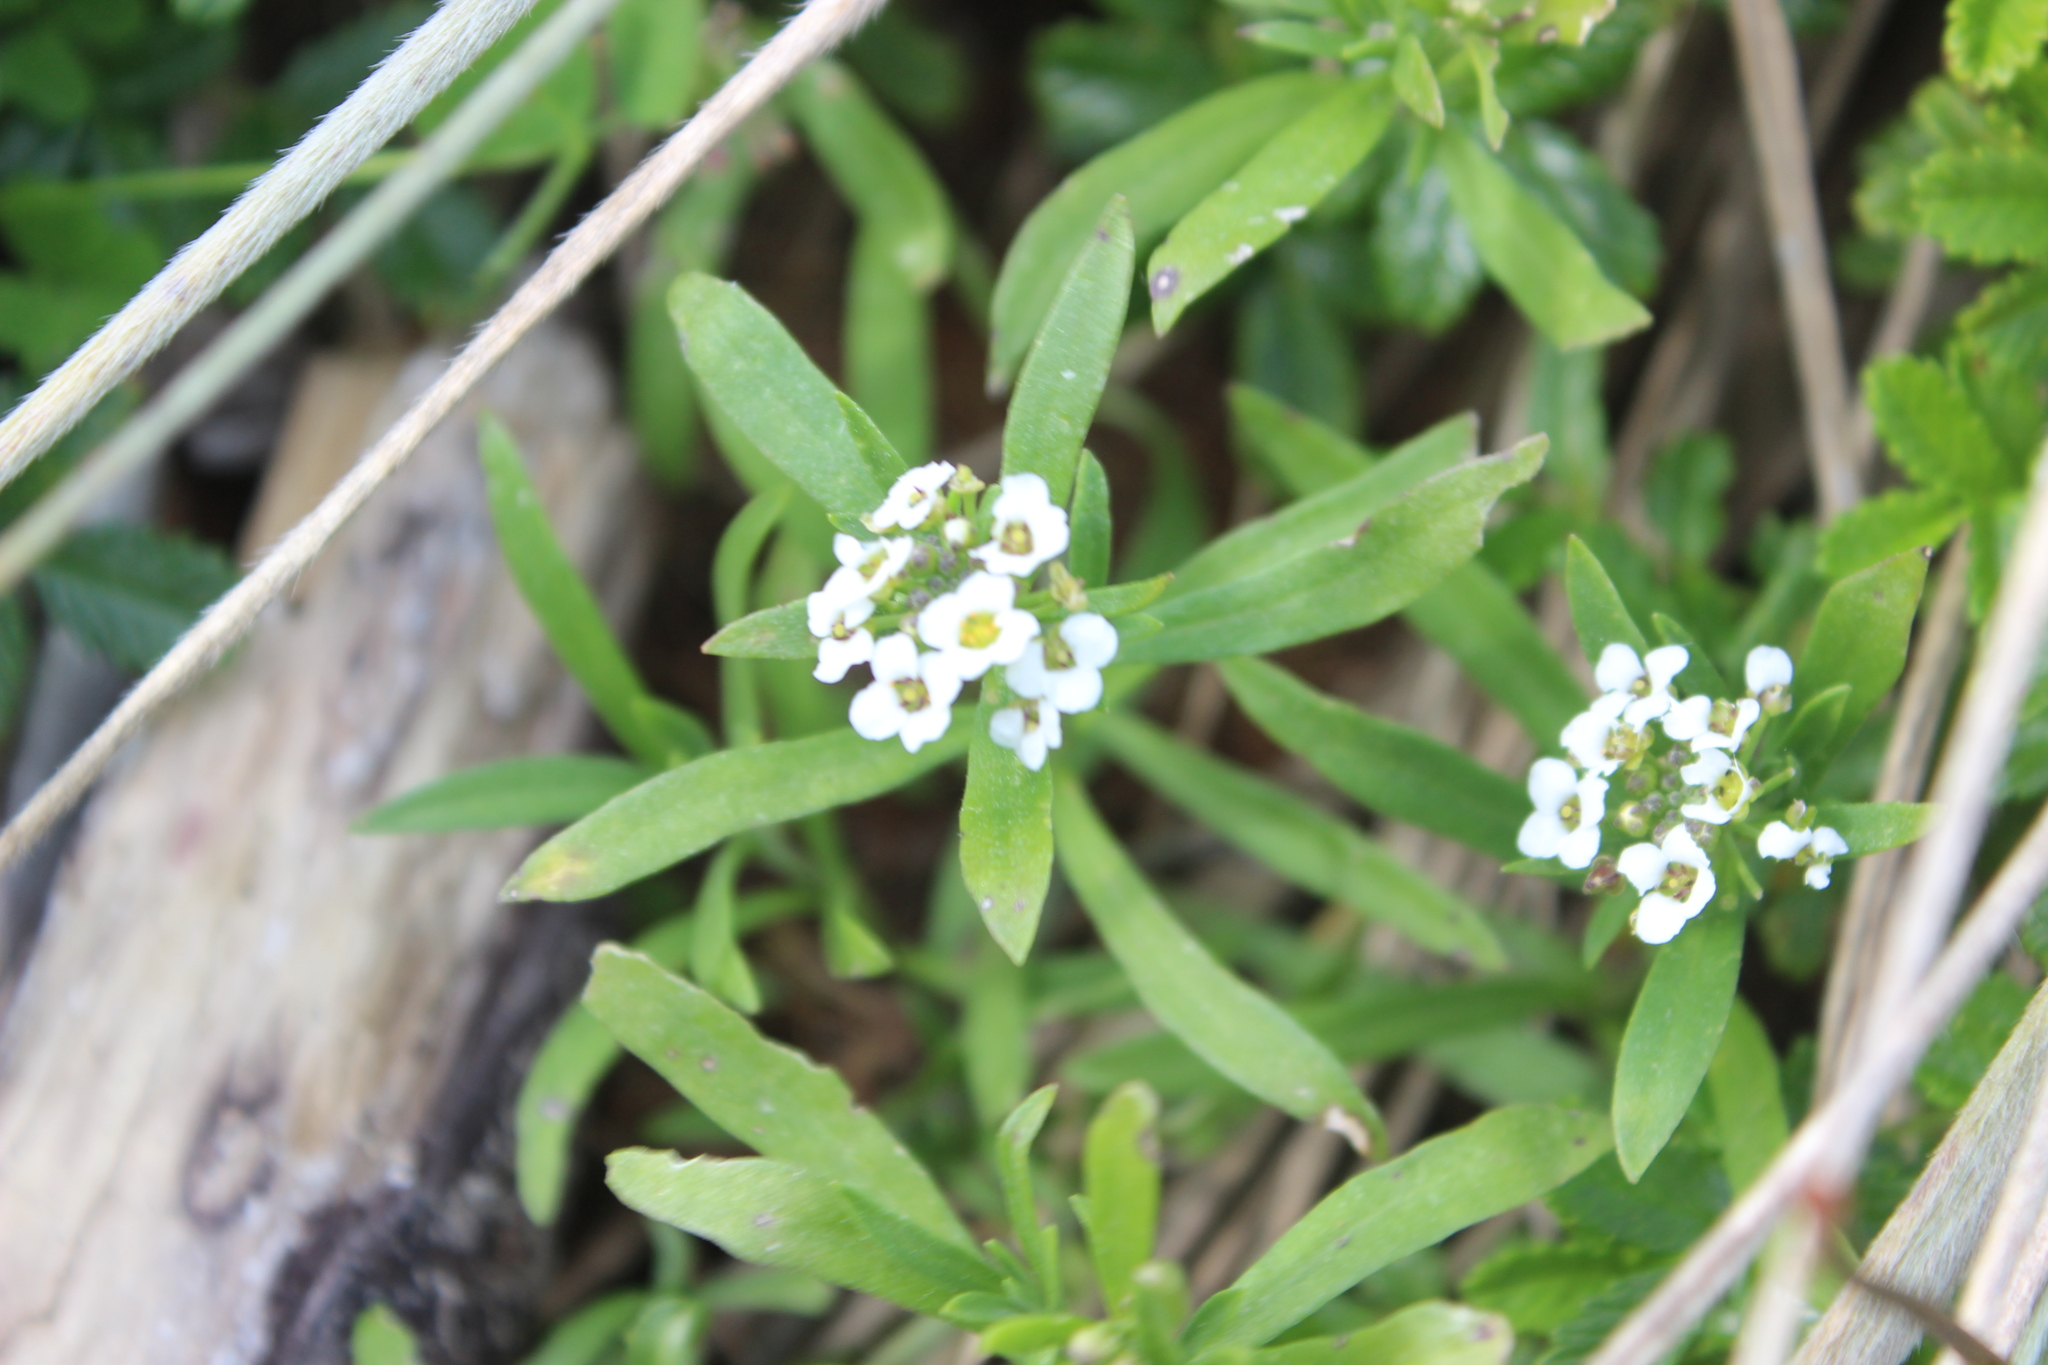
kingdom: Plantae
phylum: Tracheophyta
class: Magnoliopsida
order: Brassicales
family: Brassicaceae
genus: Lobularia
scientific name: Lobularia maritima
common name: Sweet alison
